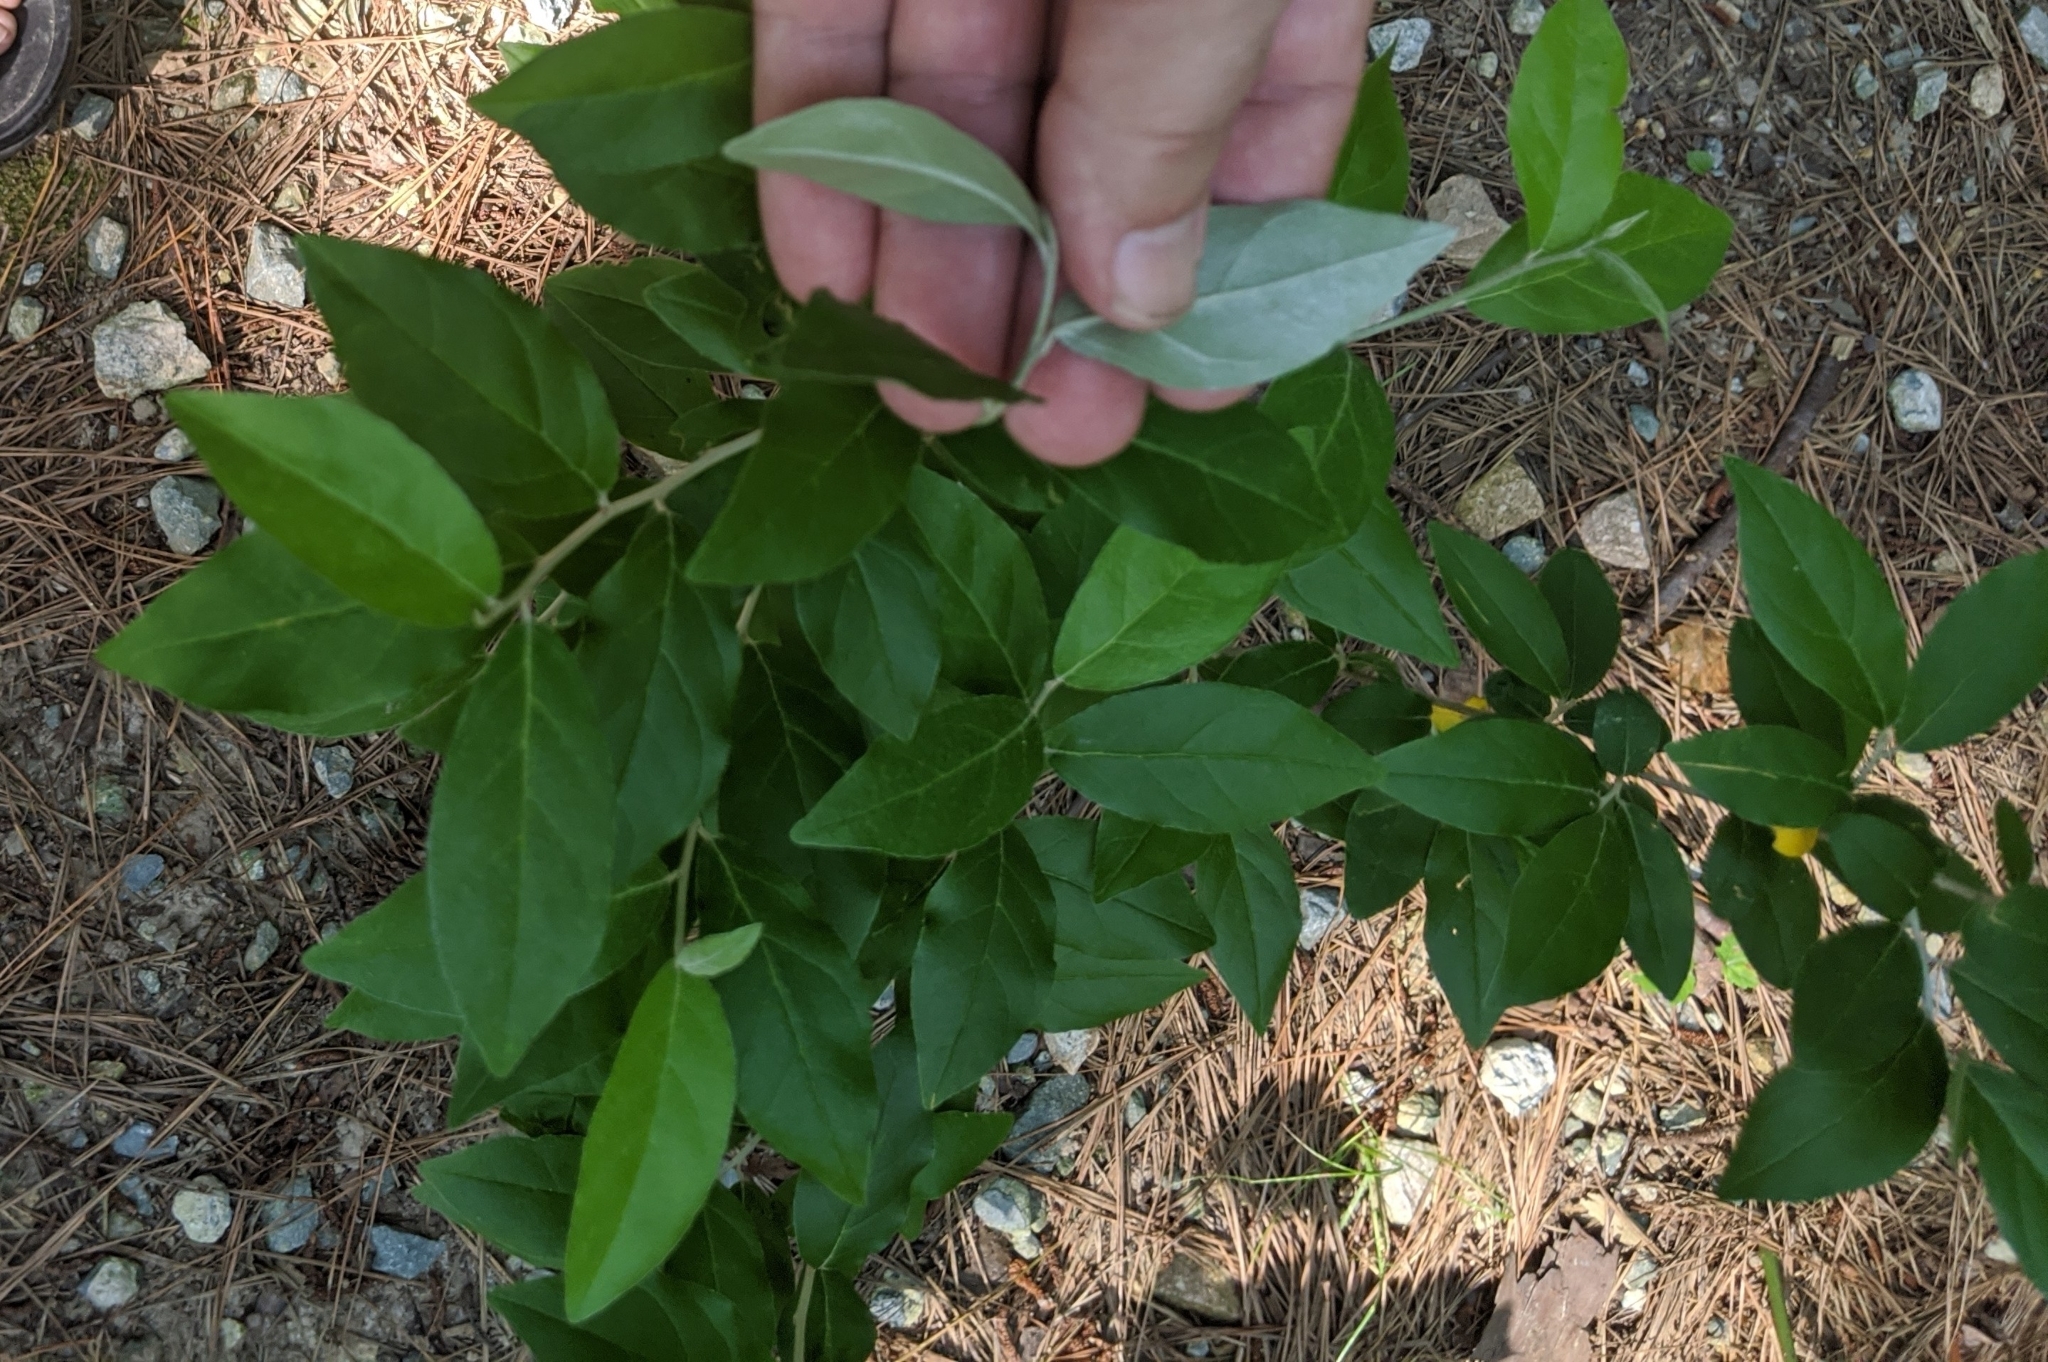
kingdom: Plantae
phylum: Tracheophyta
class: Magnoliopsida
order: Rosales
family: Elaeagnaceae
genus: Elaeagnus
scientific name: Elaeagnus umbellata
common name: Autumn olive
